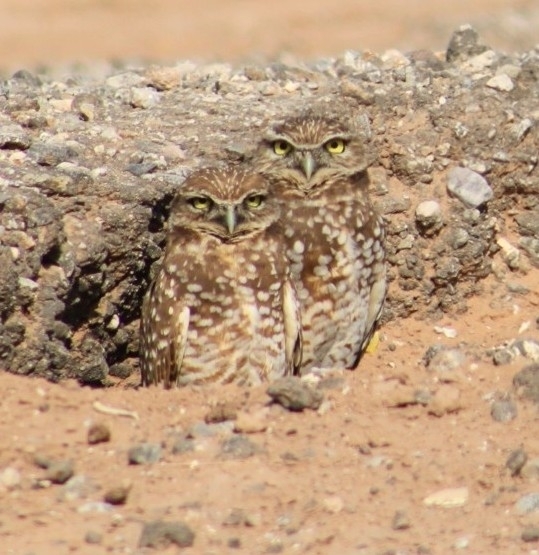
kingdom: Animalia
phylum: Chordata
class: Aves
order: Strigiformes
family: Strigidae
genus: Athene
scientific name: Athene cunicularia
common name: Burrowing owl
